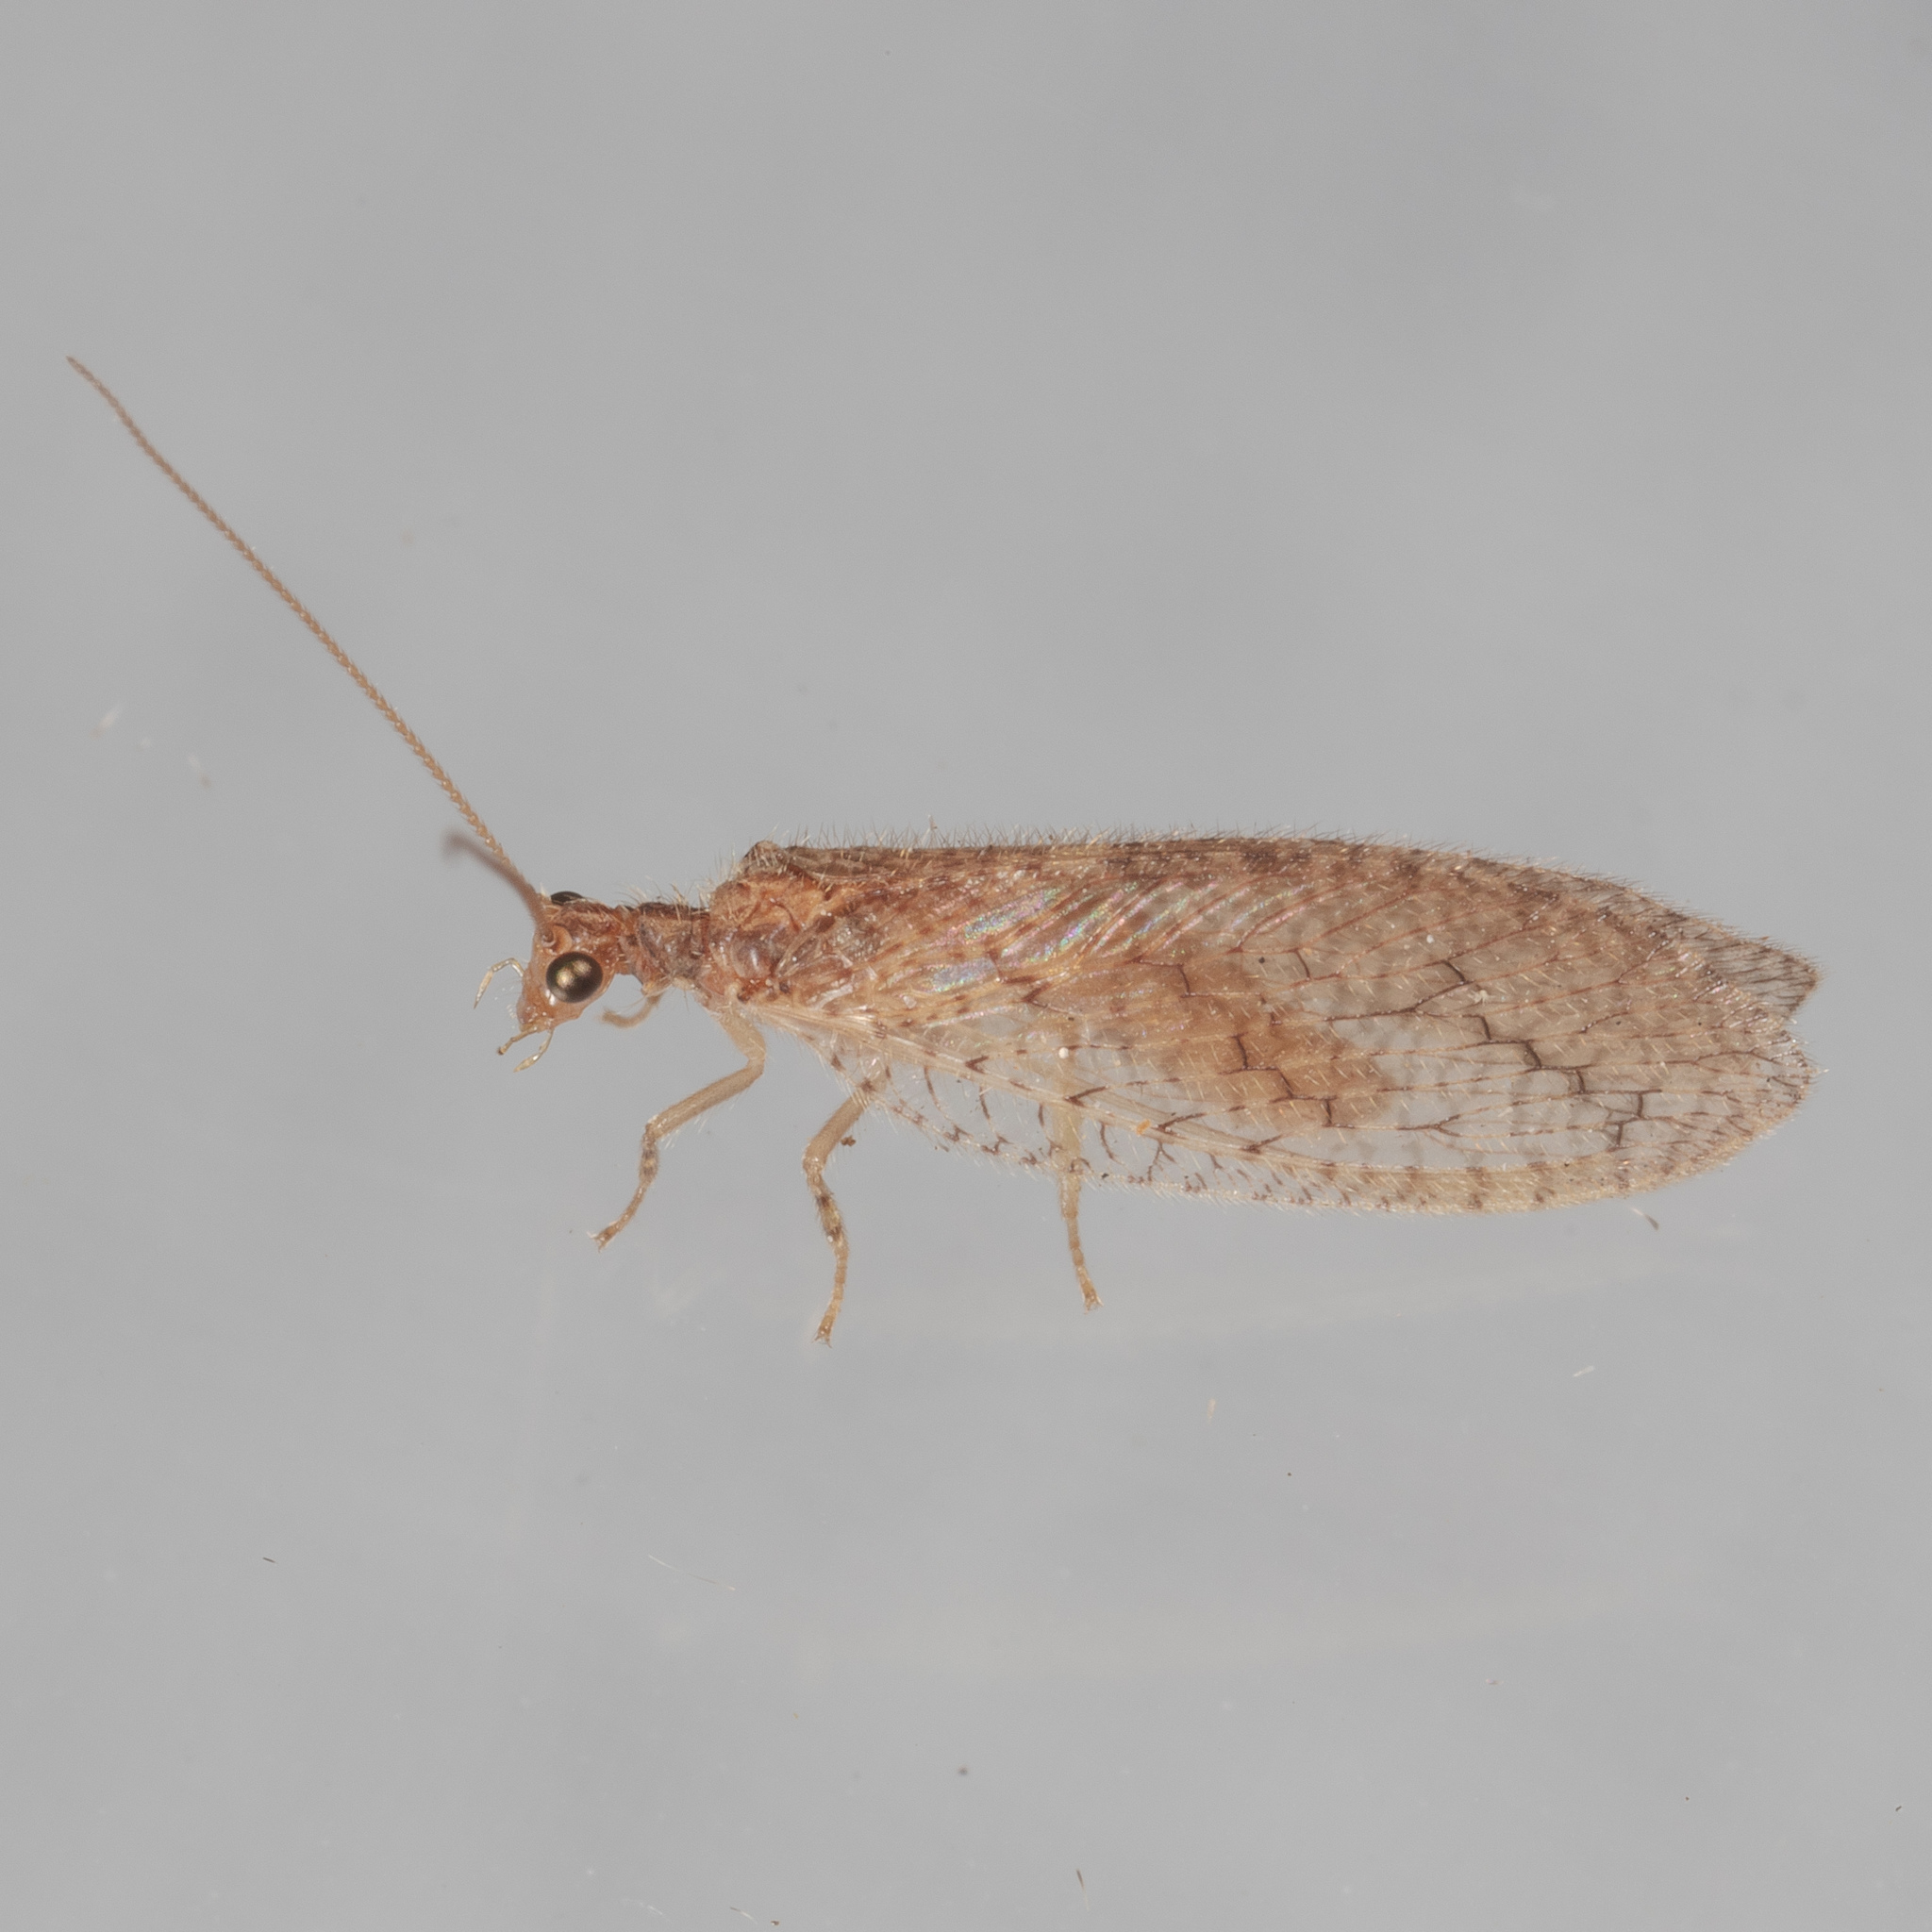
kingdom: Animalia
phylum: Arthropoda
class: Insecta
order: Neuroptera
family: Hemerobiidae
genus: Micromus
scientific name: Micromus posticus
